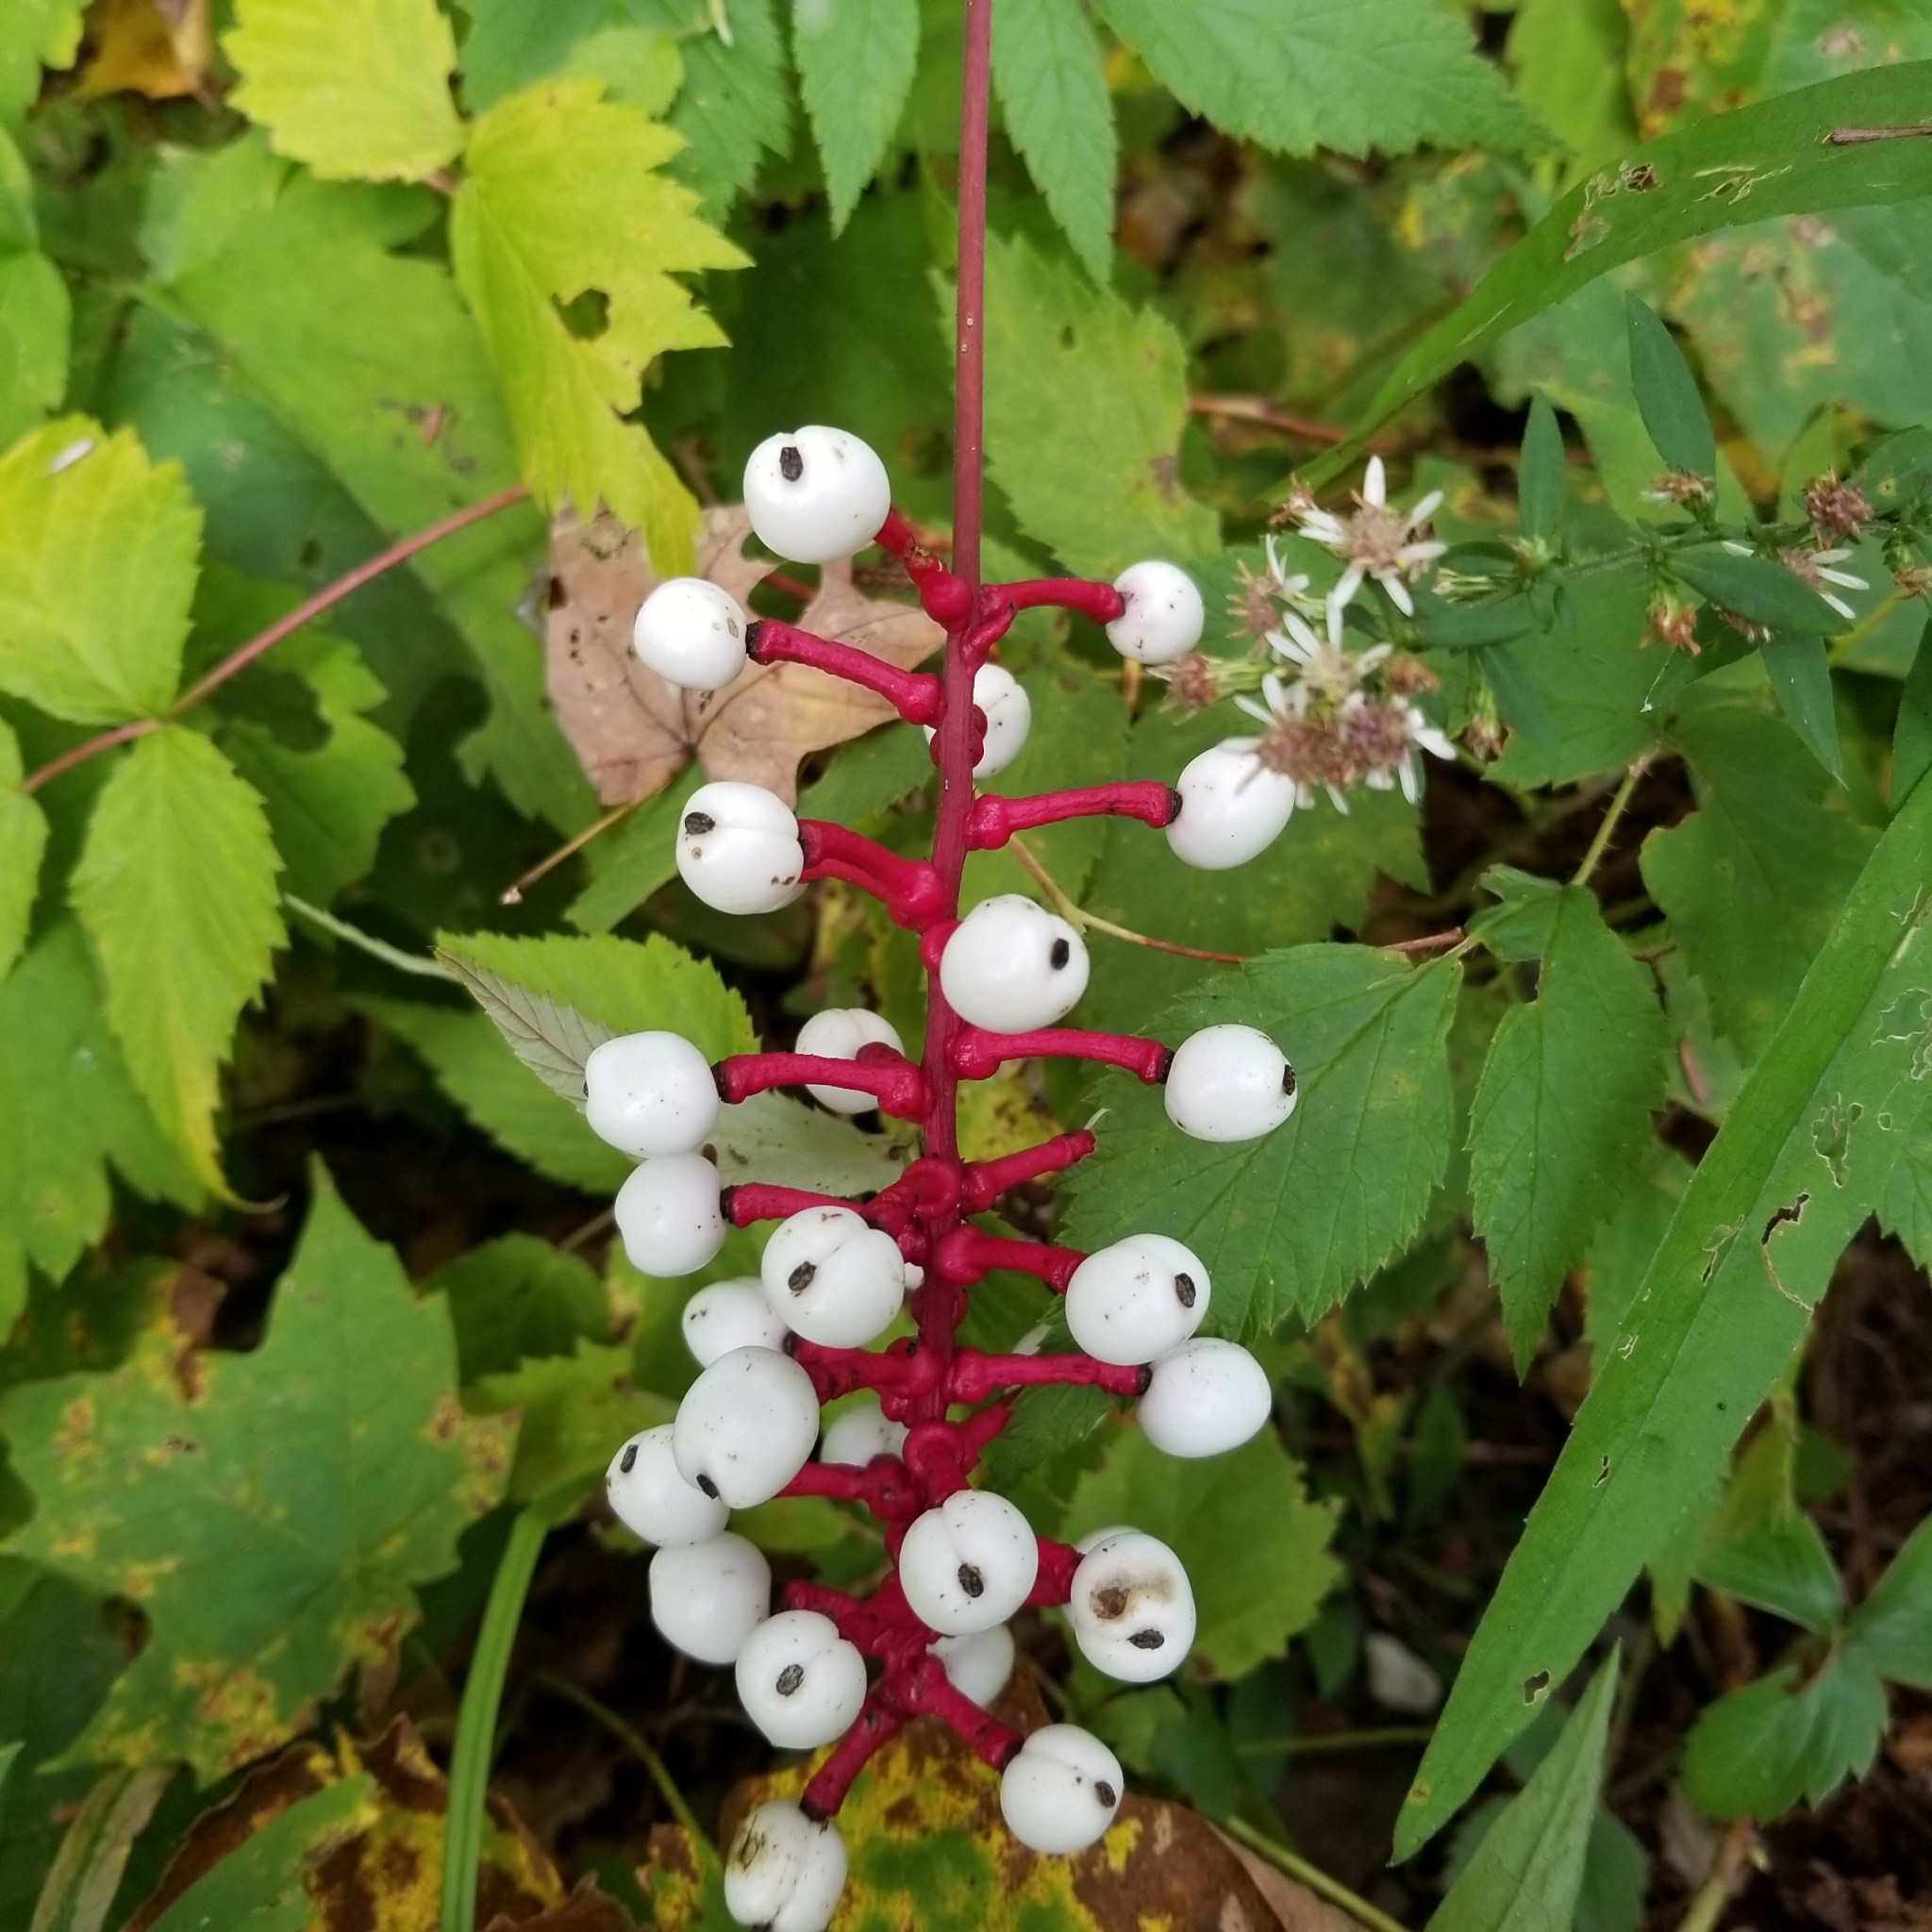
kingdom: Plantae
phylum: Tracheophyta
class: Magnoliopsida
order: Ranunculales
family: Ranunculaceae
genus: Actaea
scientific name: Actaea pachypoda
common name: Doll's-eyes
